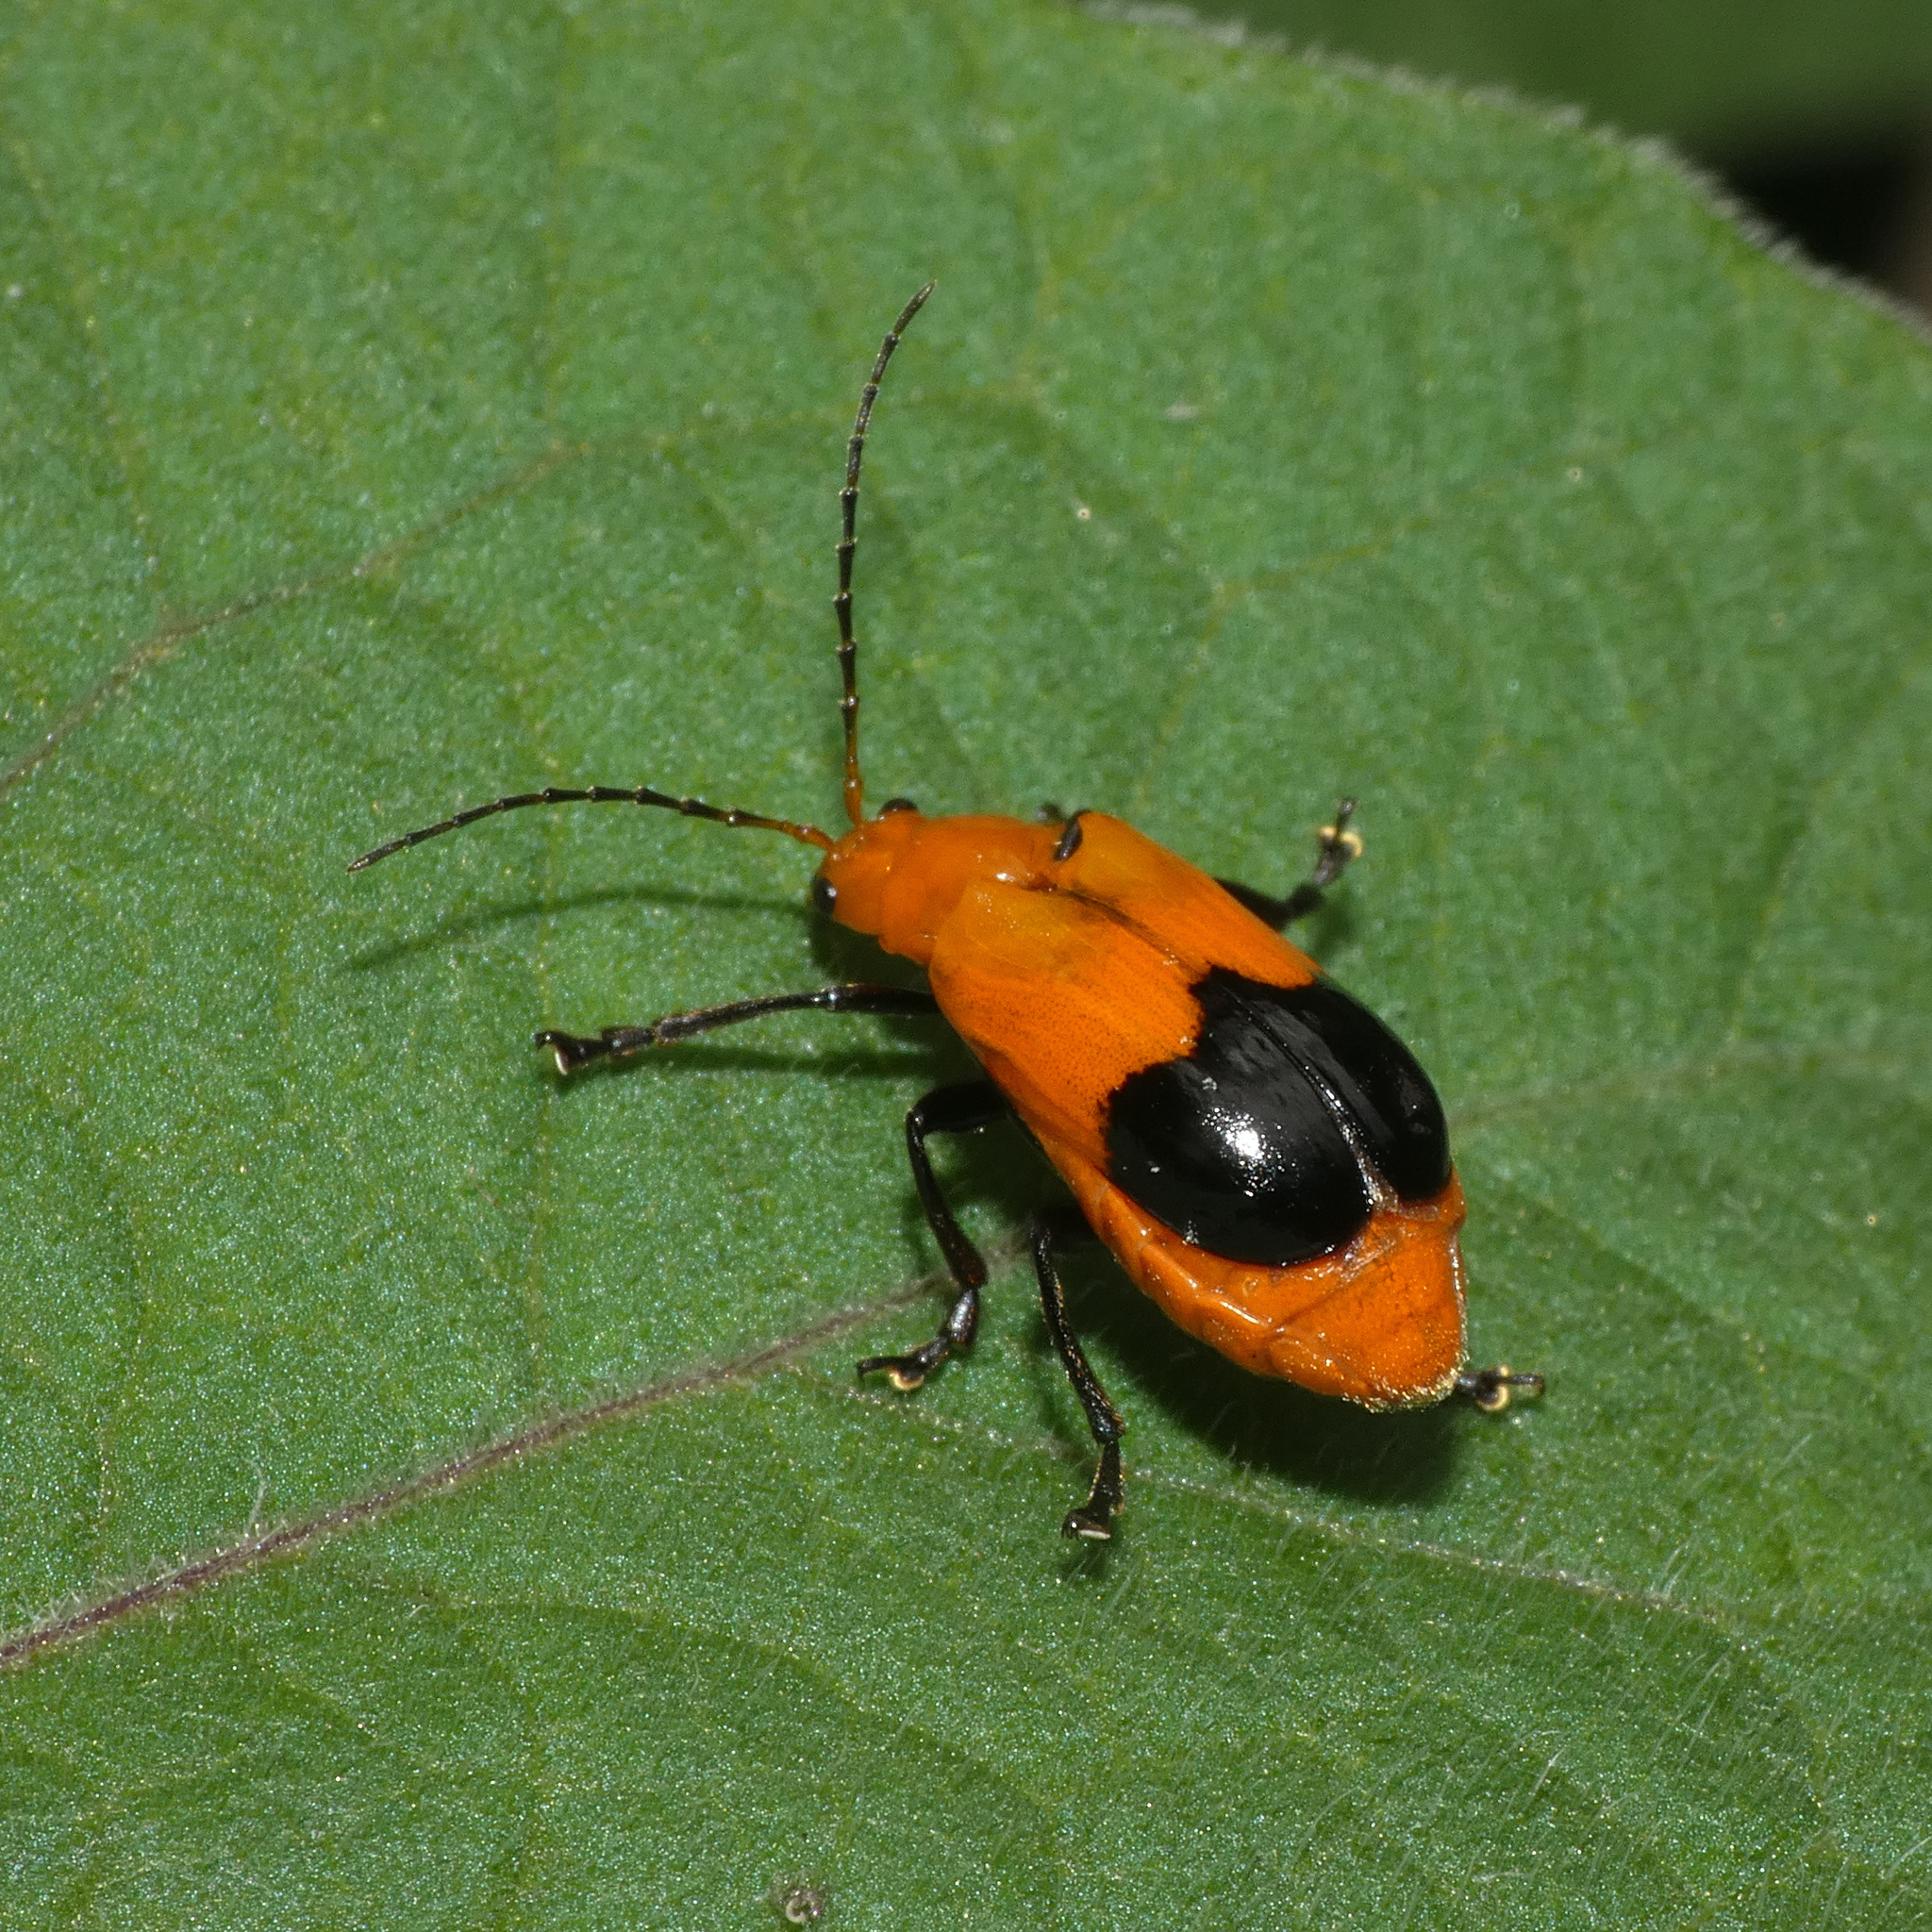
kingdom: Animalia
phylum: Arthropoda
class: Insecta
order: Coleoptera
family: Chrysomelidae
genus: Prosmidia
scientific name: Prosmidia
